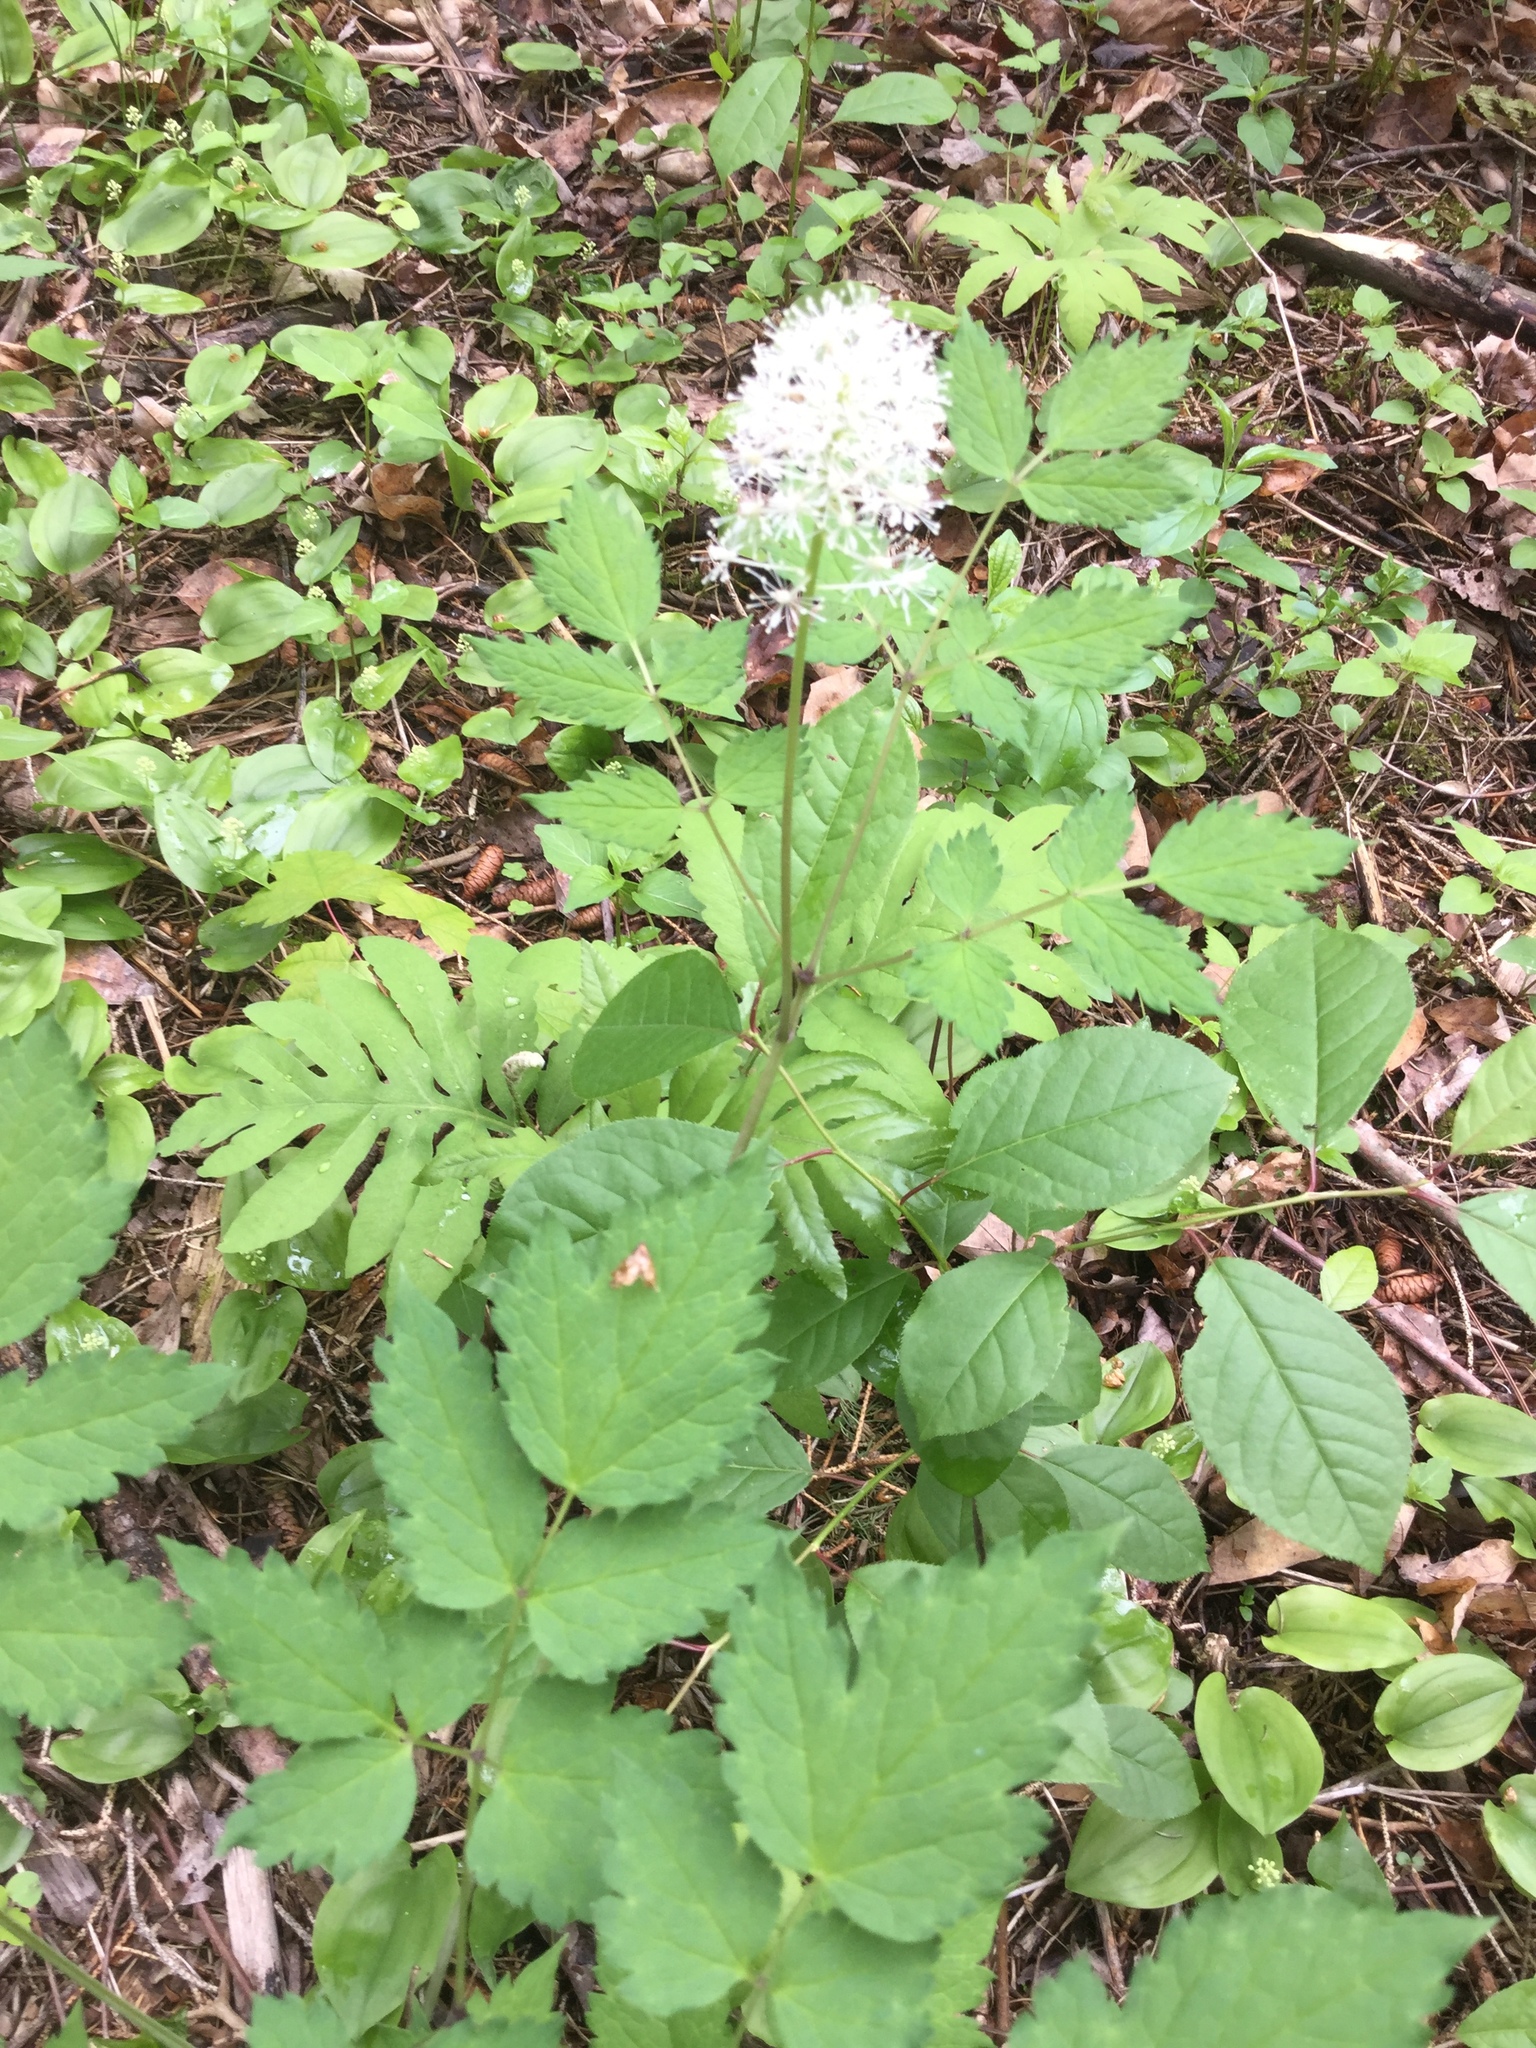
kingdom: Plantae
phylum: Tracheophyta
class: Magnoliopsida
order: Ranunculales
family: Ranunculaceae
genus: Actaea
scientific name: Actaea rubra
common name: Red baneberry
